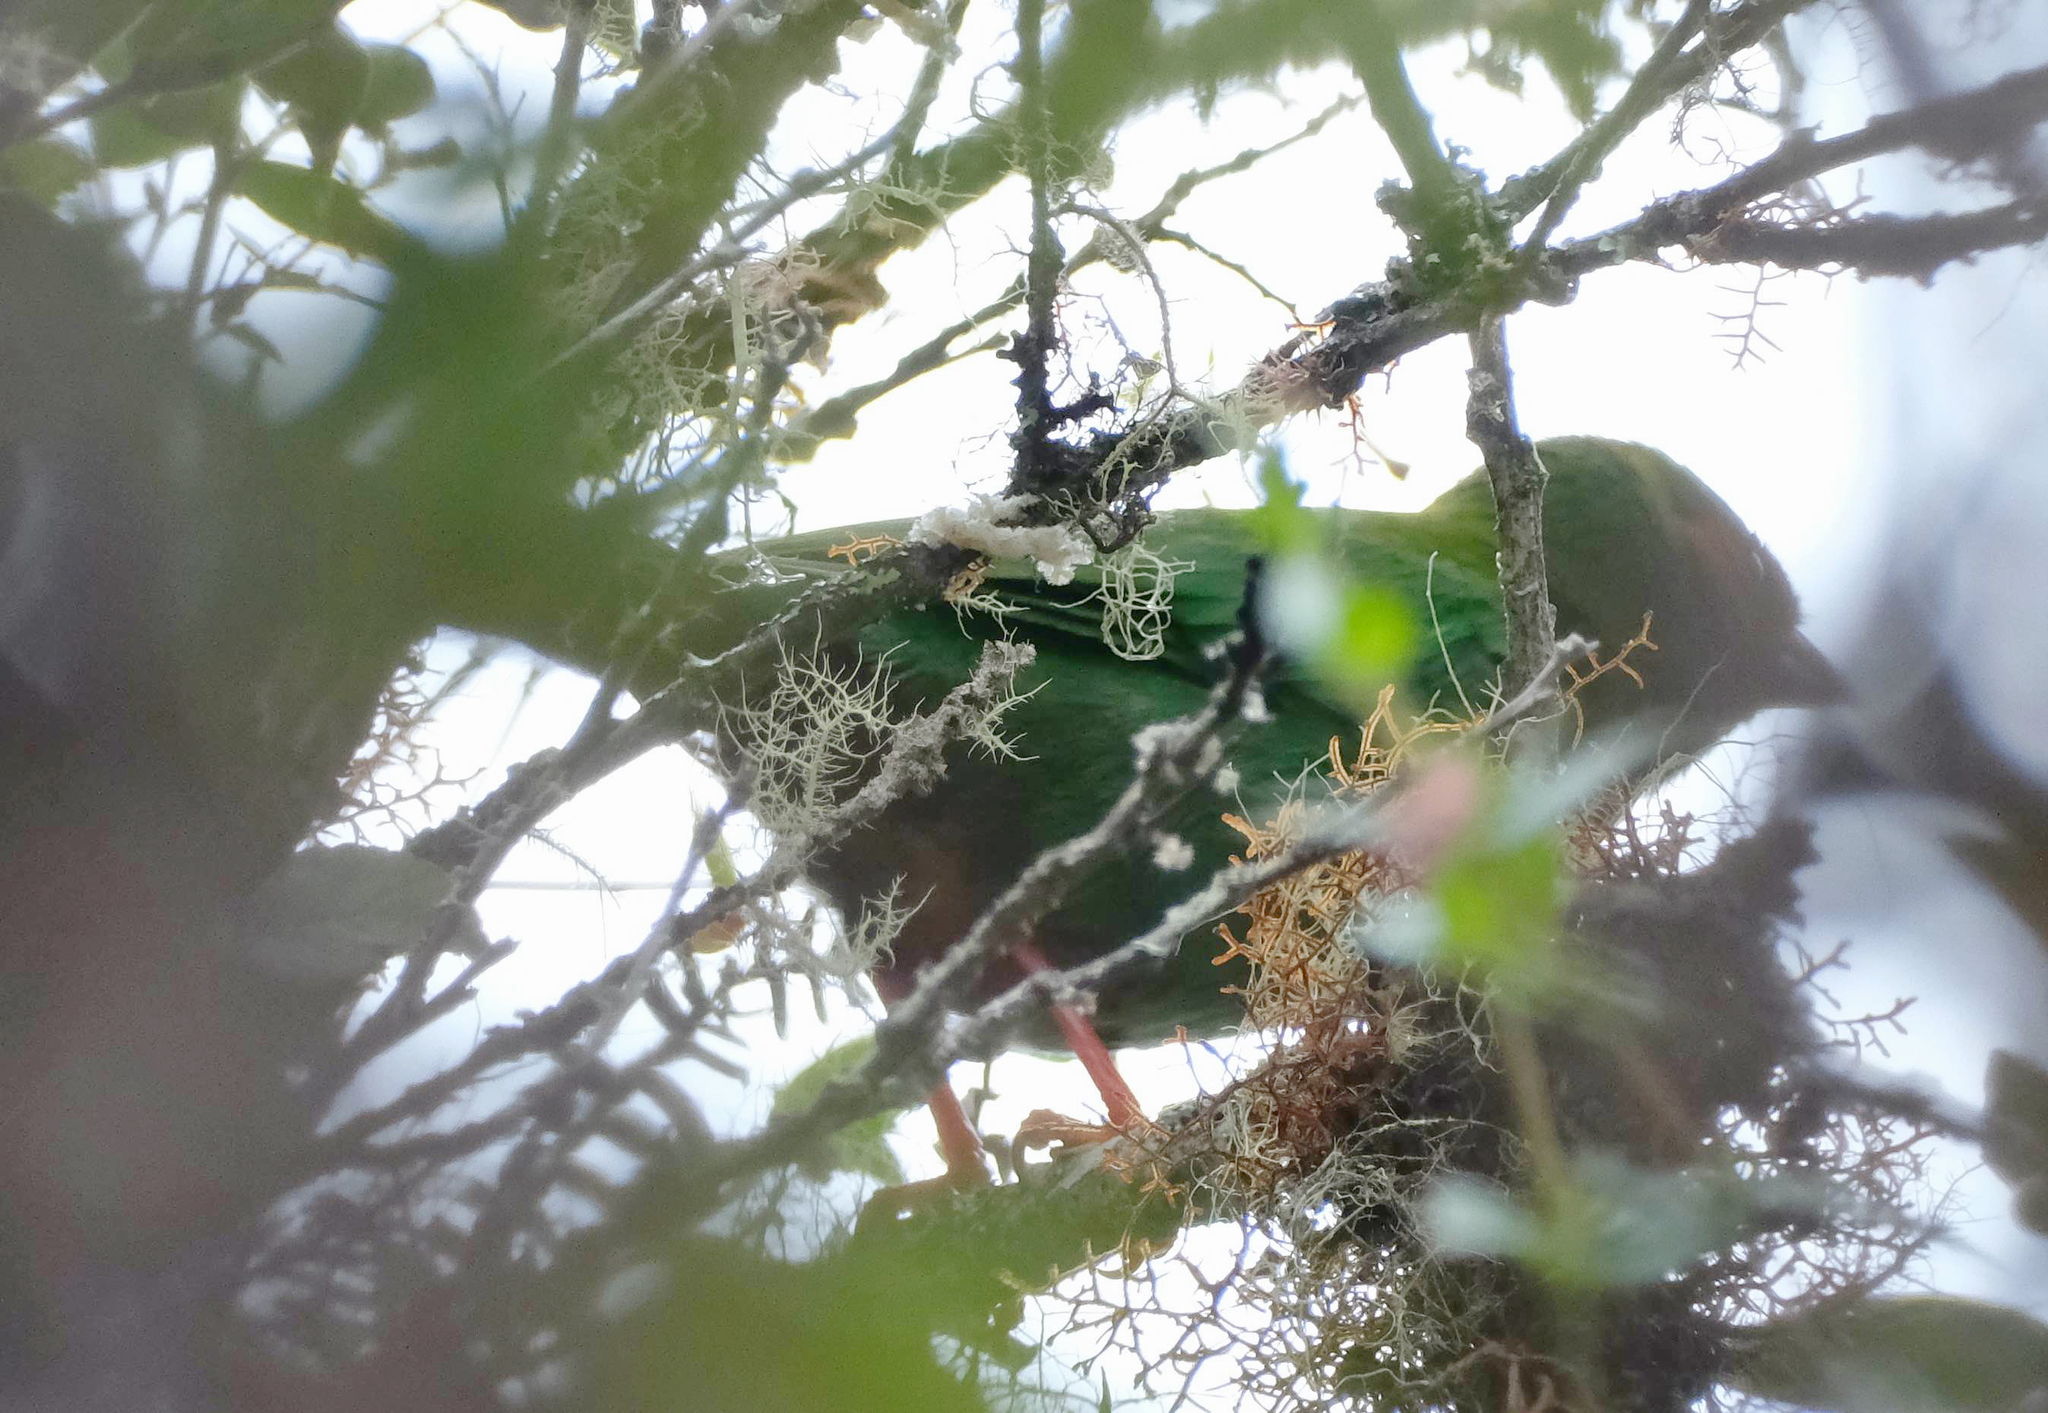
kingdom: Animalia
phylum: Chordata
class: Aves
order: Passeriformes
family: Thraupidae
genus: Chlorornis
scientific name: Chlorornis riefferii
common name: Grass-green tanager
